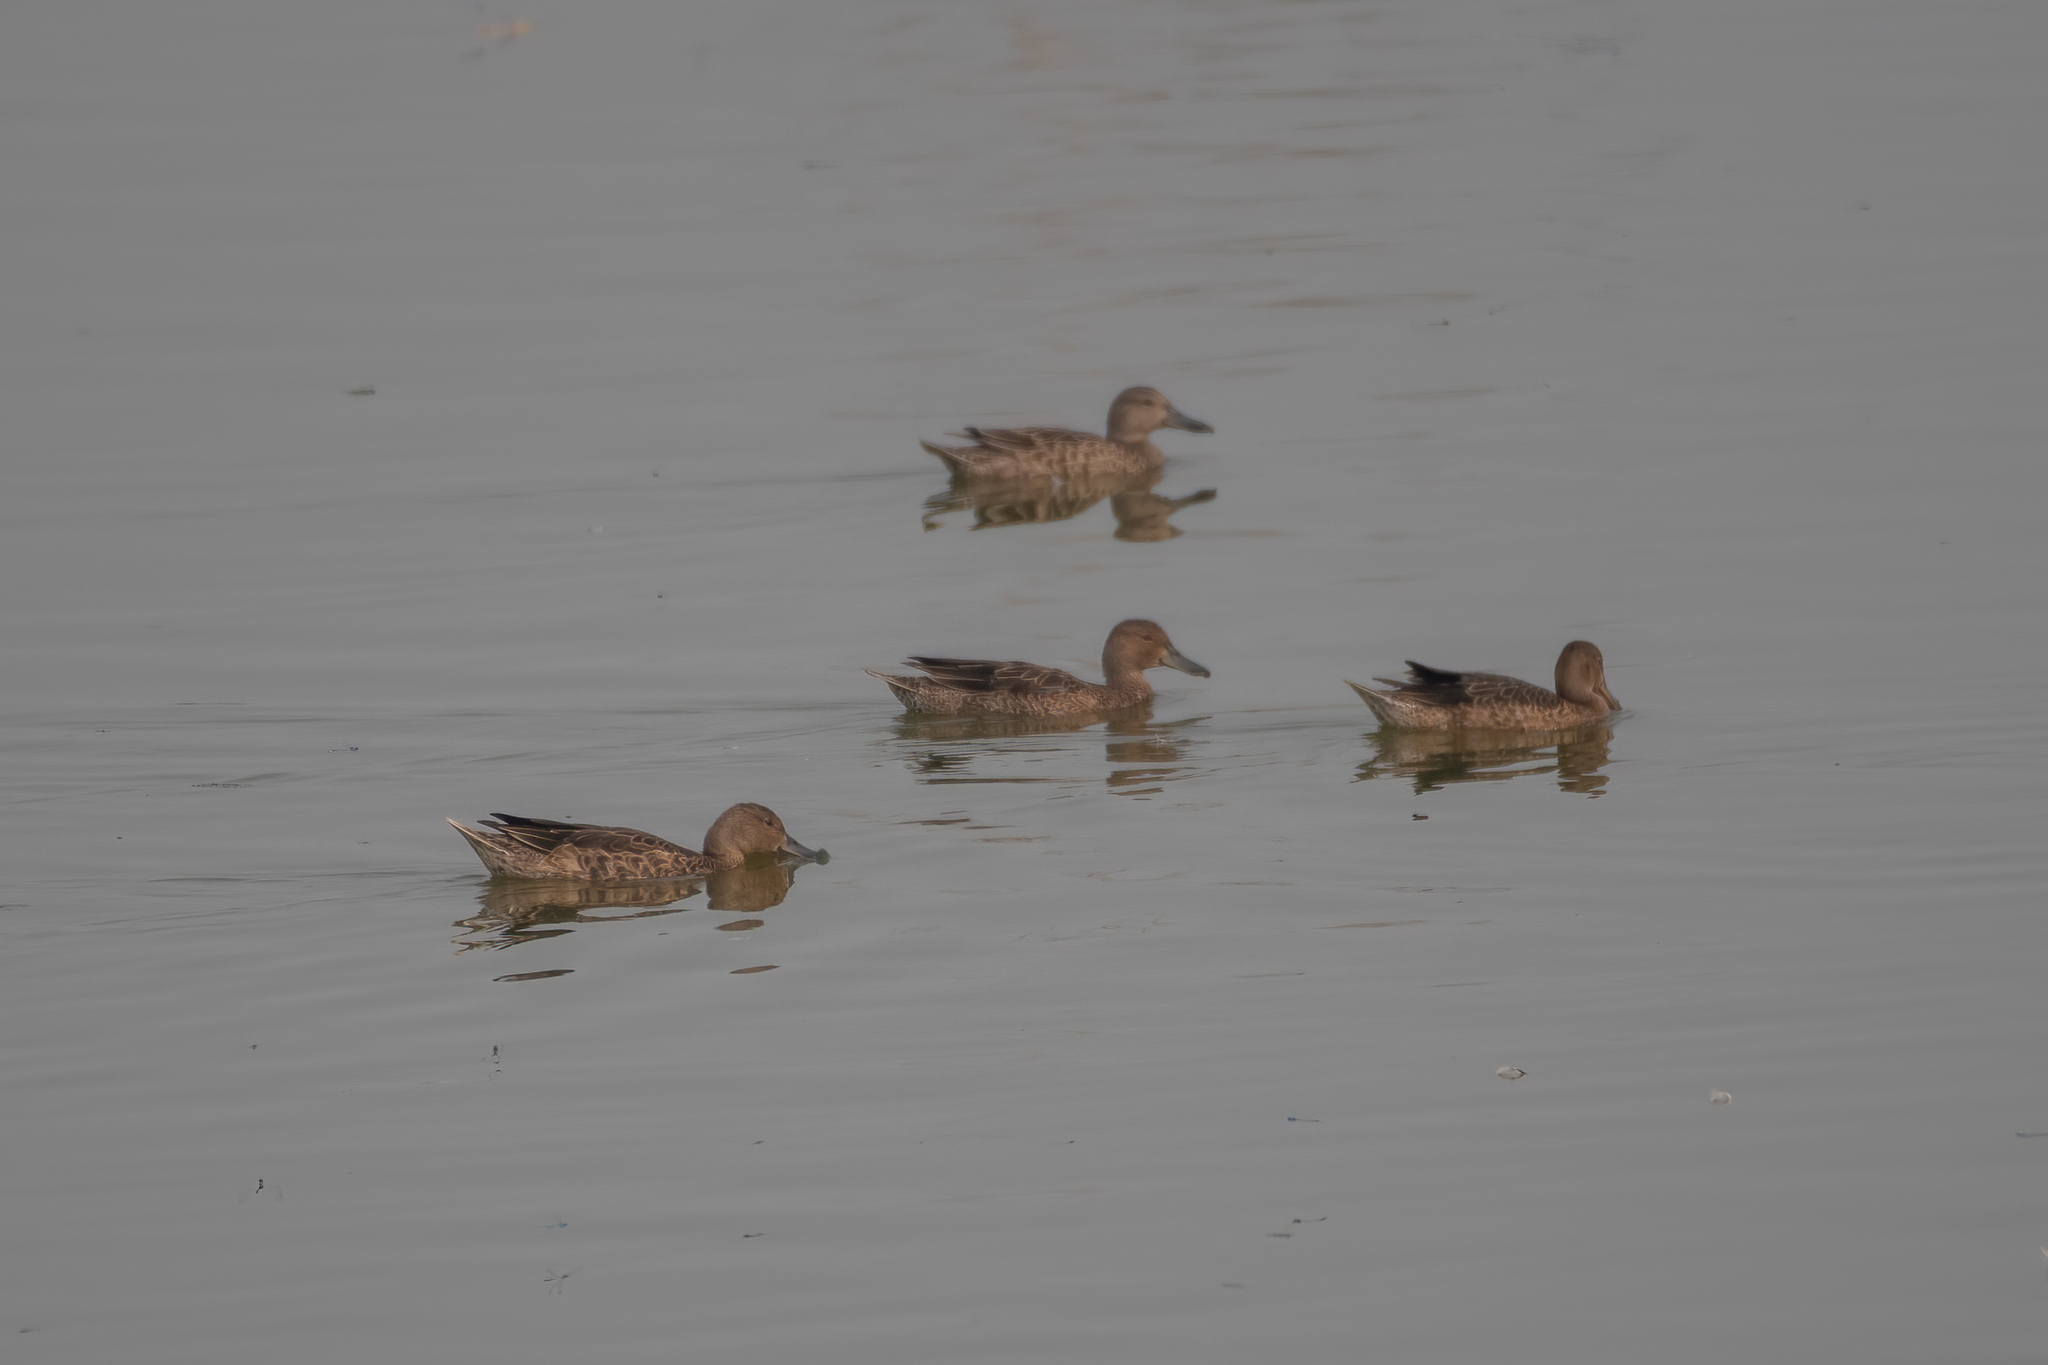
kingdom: Animalia
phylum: Chordata
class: Aves
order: Anseriformes
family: Anatidae
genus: Spatula
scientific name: Spatula cyanoptera
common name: Cinnamon teal
